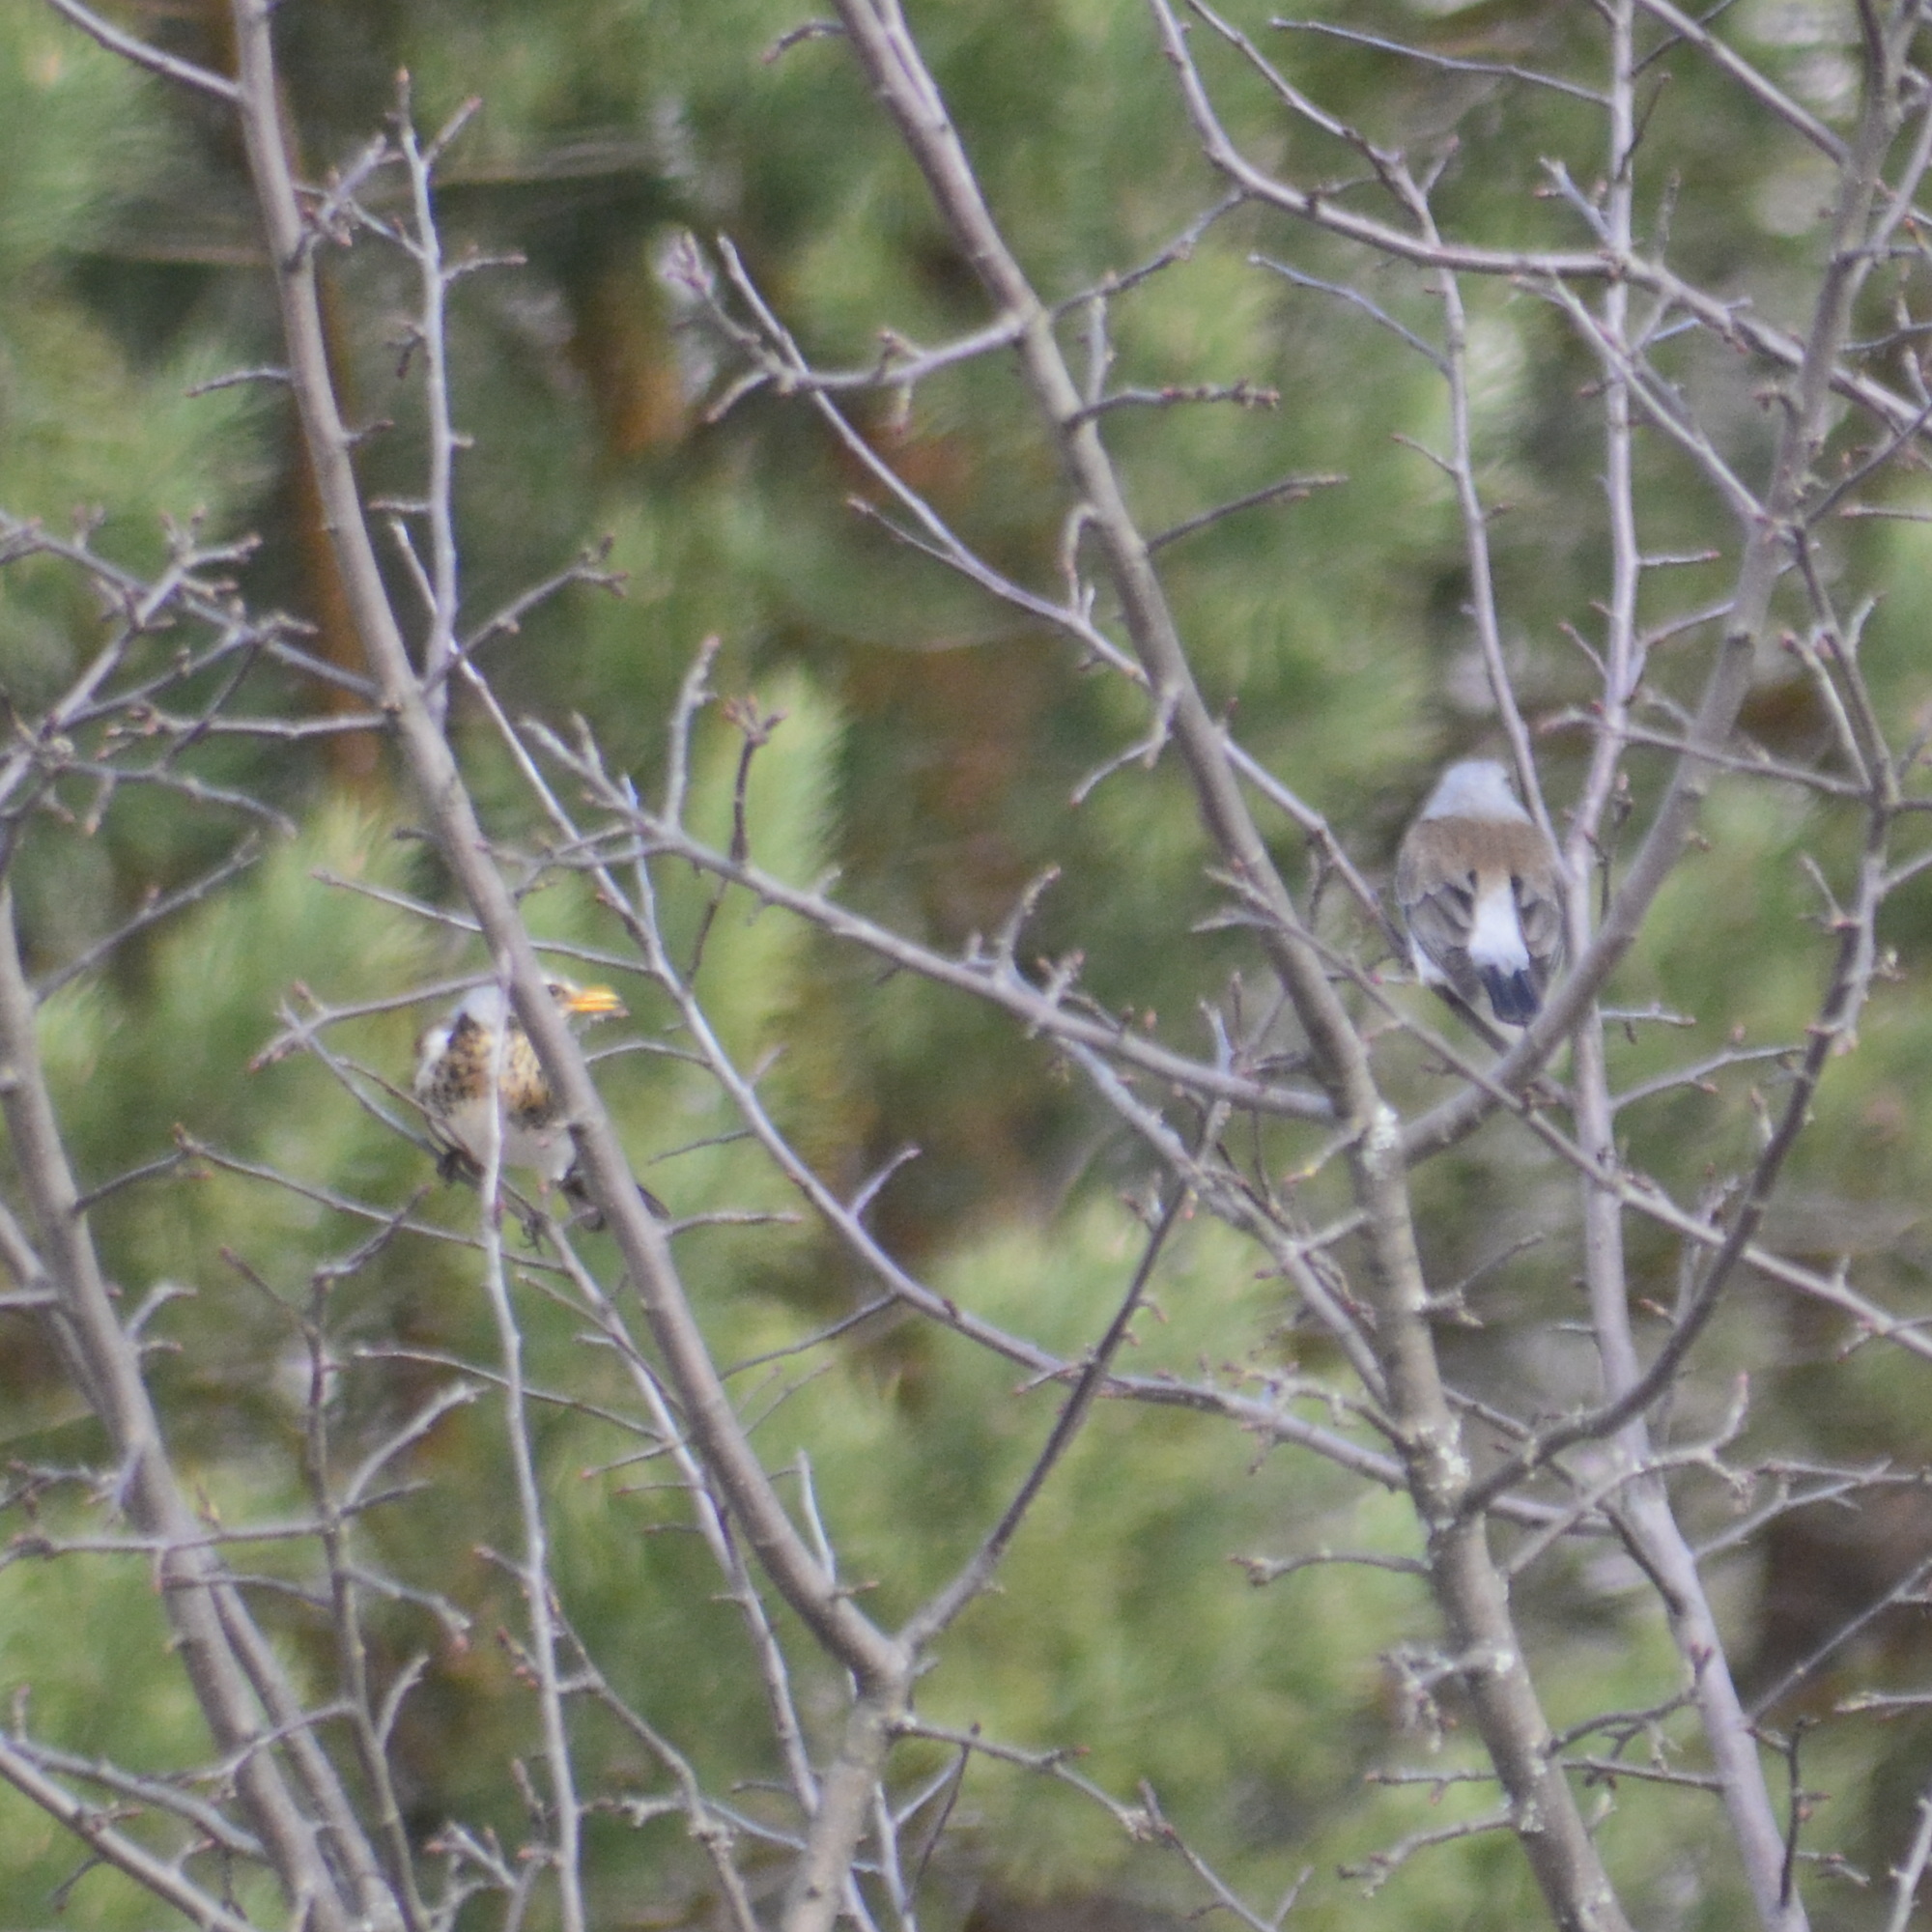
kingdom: Animalia
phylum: Chordata
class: Aves
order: Passeriformes
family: Turdidae
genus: Turdus
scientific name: Turdus pilaris
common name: Fieldfare
